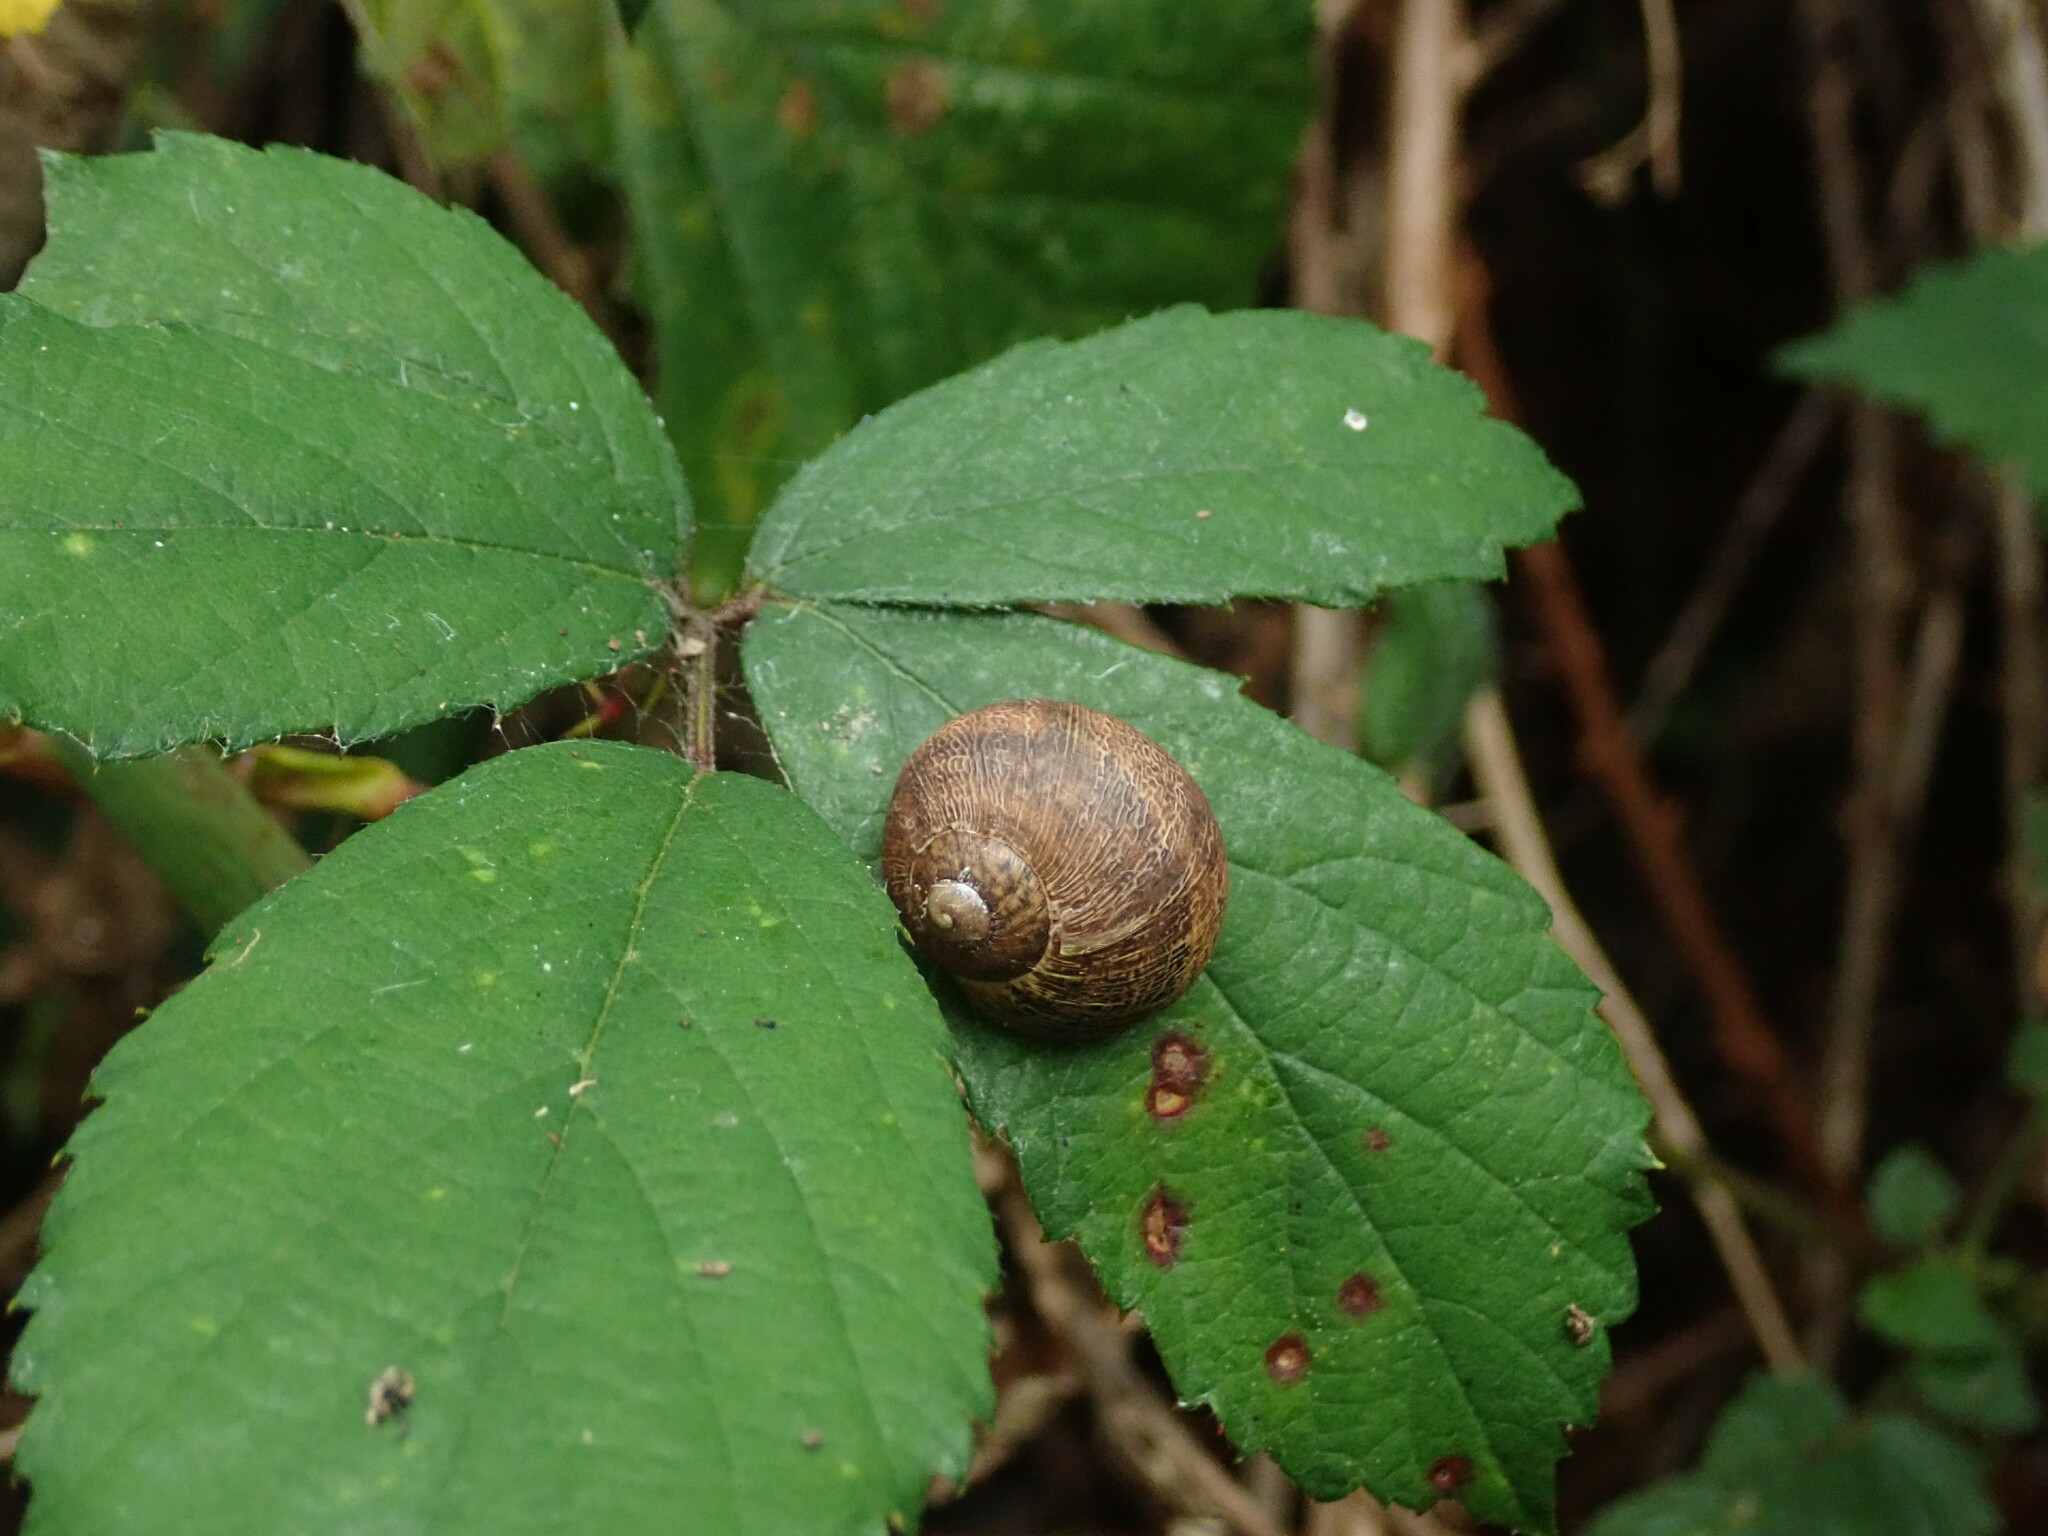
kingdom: Animalia
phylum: Mollusca
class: Gastropoda
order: Stylommatophora
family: Helicidae
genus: Cornu
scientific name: Cornu aspersum
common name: Brown garden snail
